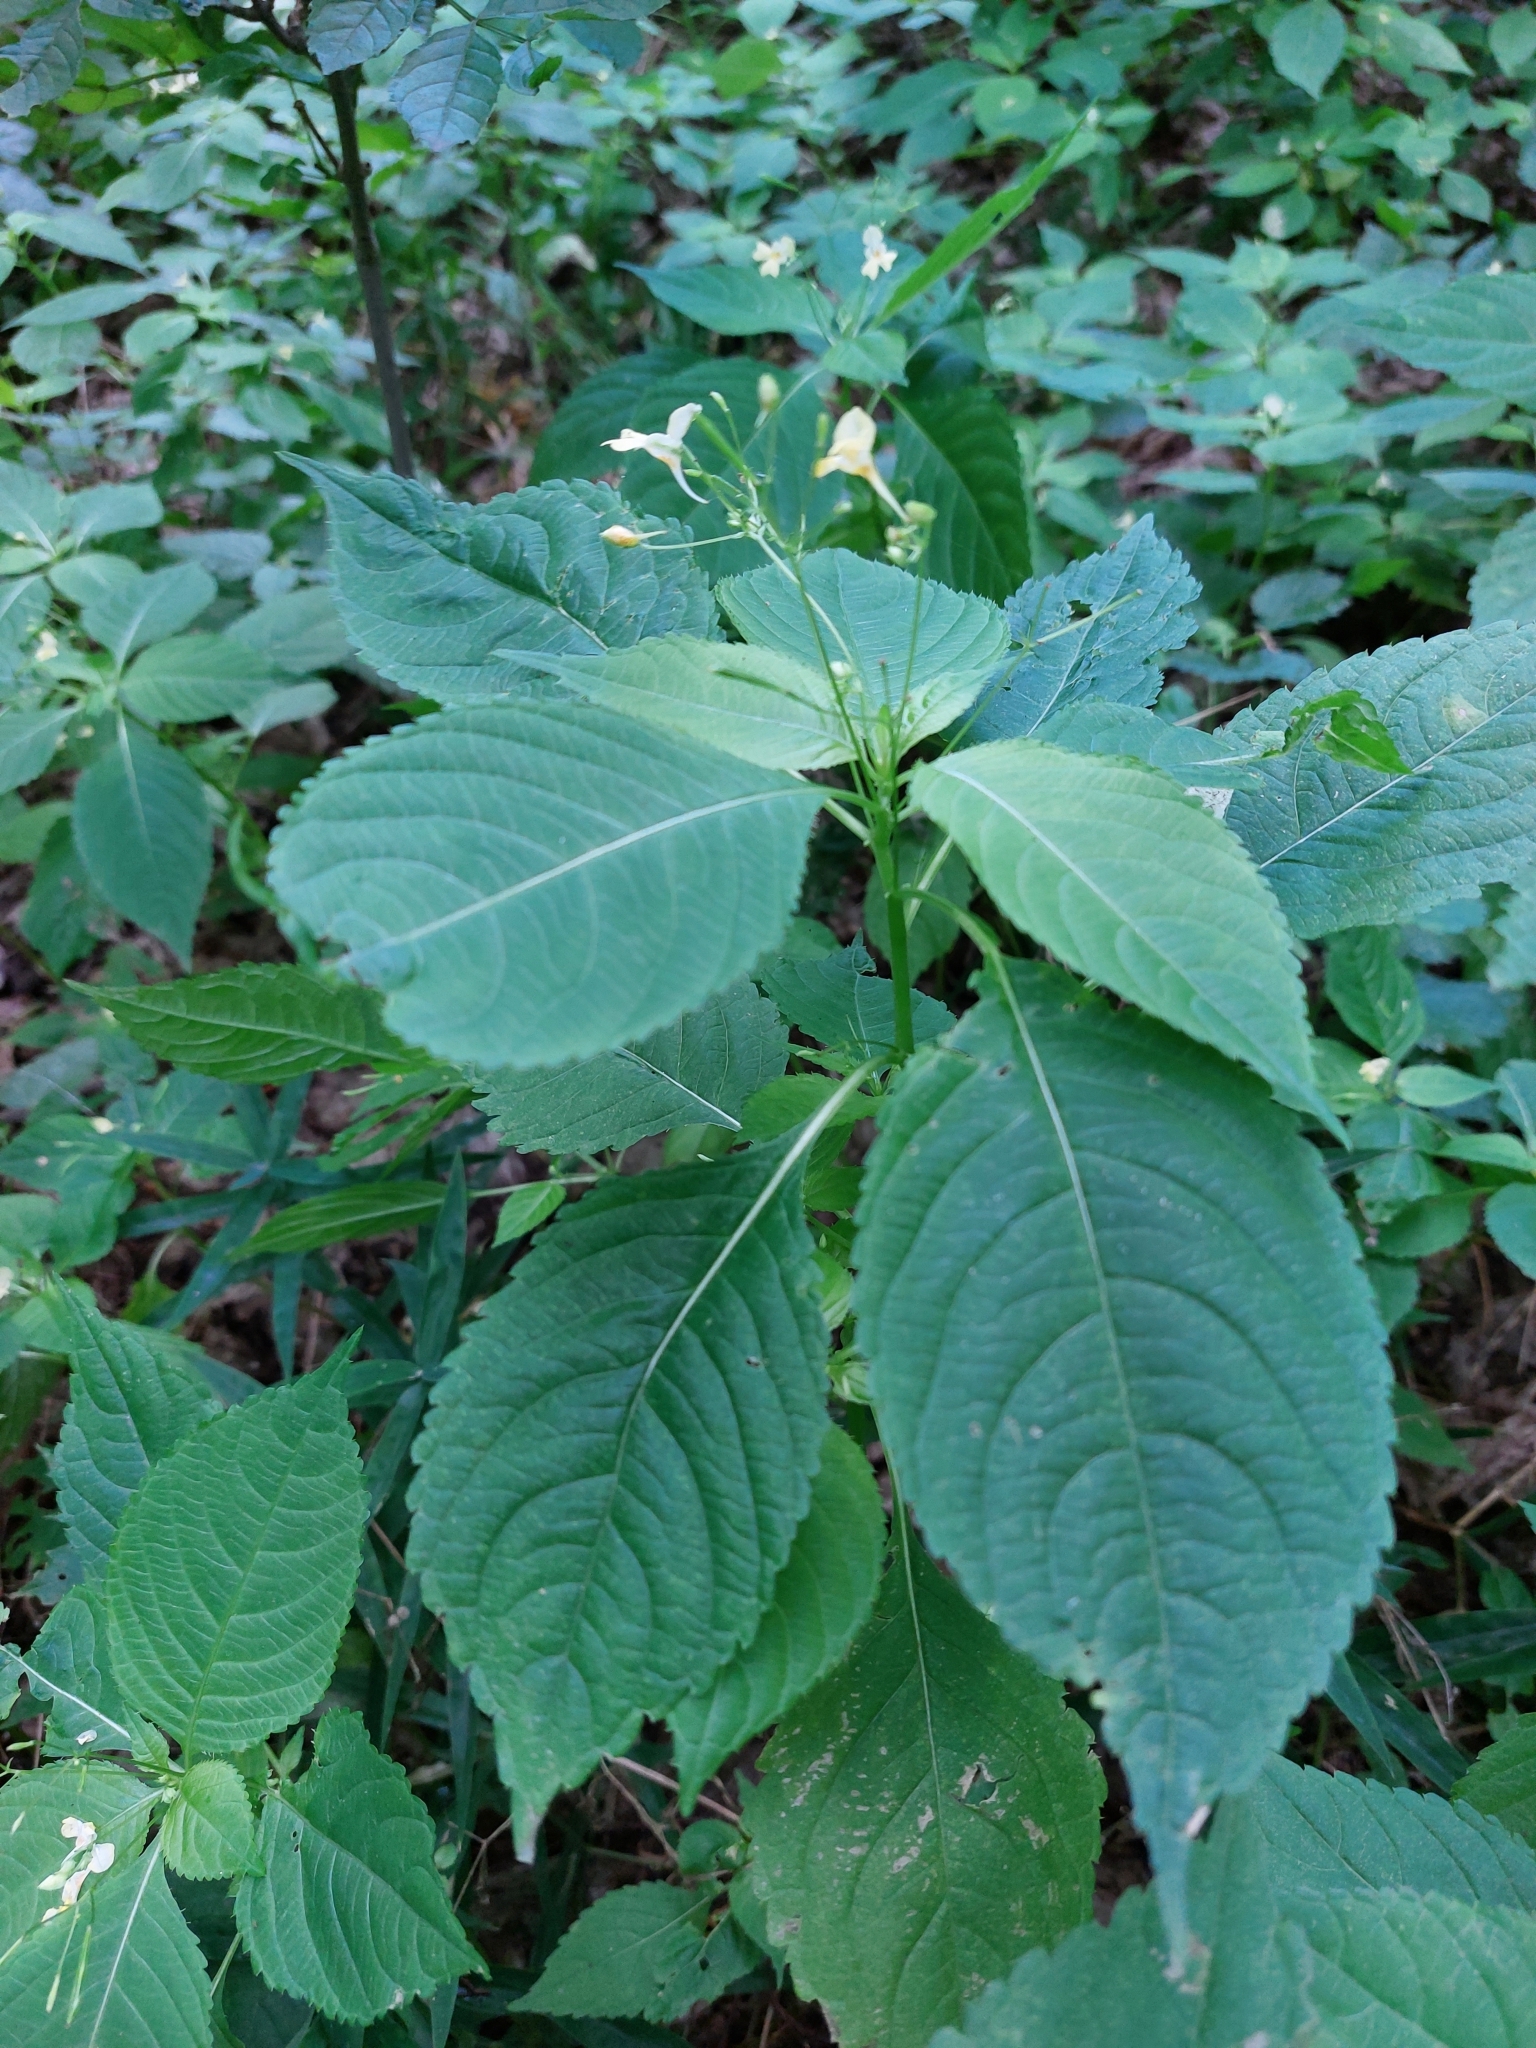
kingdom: Plantae
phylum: Tracheophyta
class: Magnoliopsida
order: Ericales
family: Balsaminaceae
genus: Impatiens
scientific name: Impatiens parviflora
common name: Small balsam
